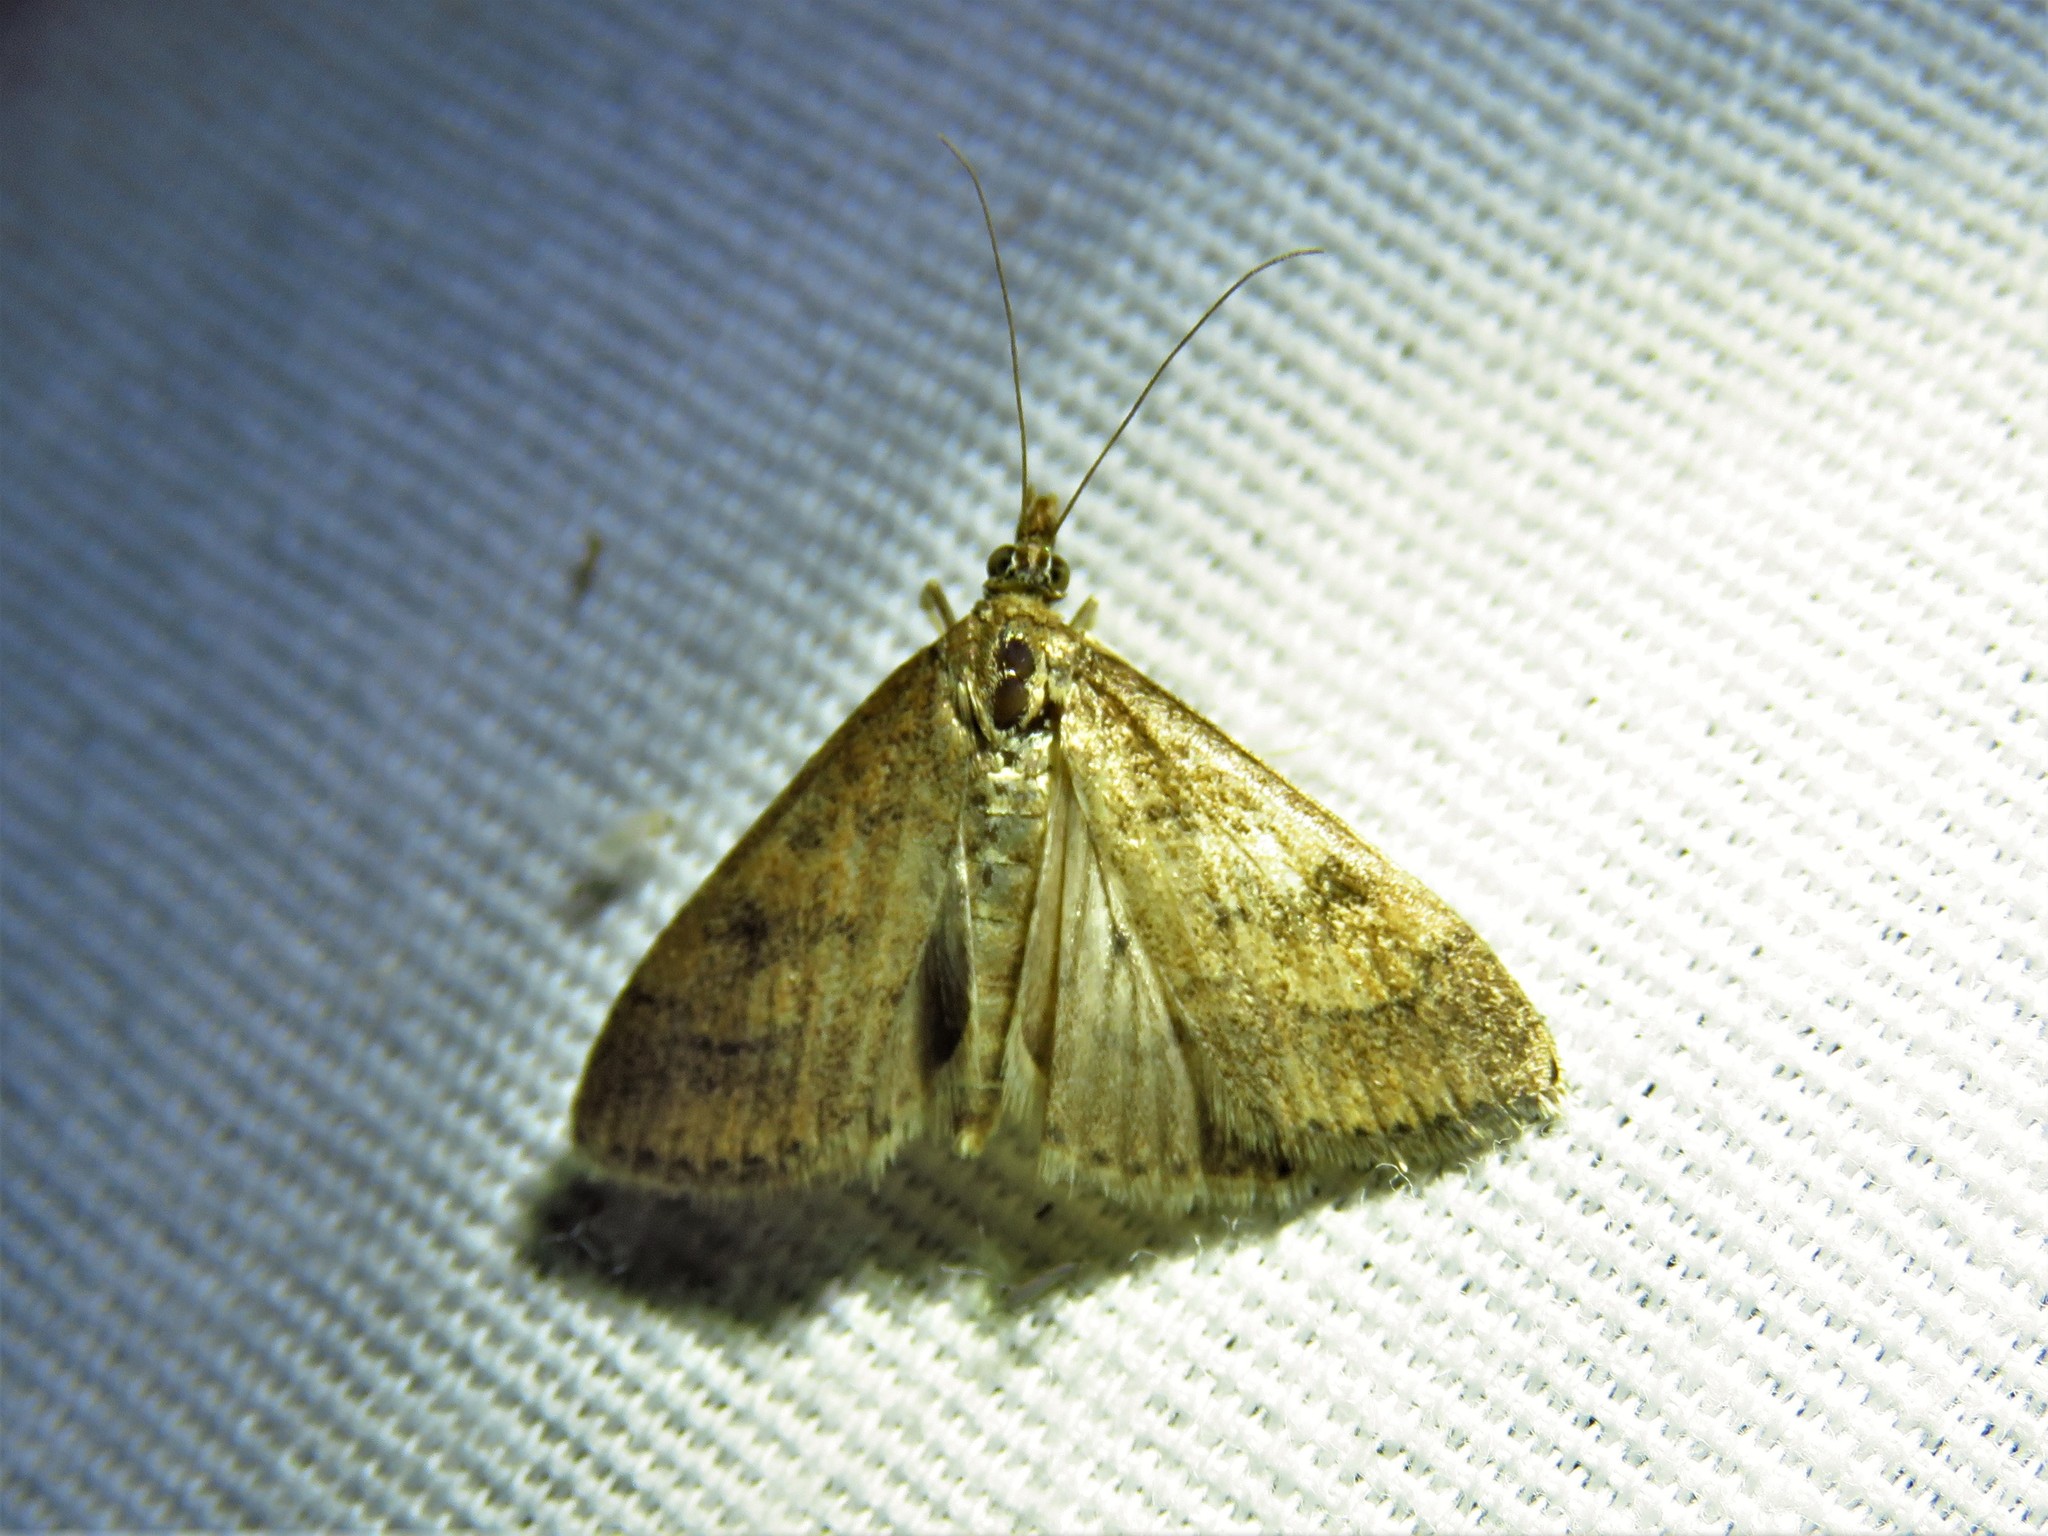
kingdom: Animalia
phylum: Arthropoda
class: Insecta
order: Lepidoptera
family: Crambidae
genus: Udea
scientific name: Udea rubigalis
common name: Celery leaftier moth
